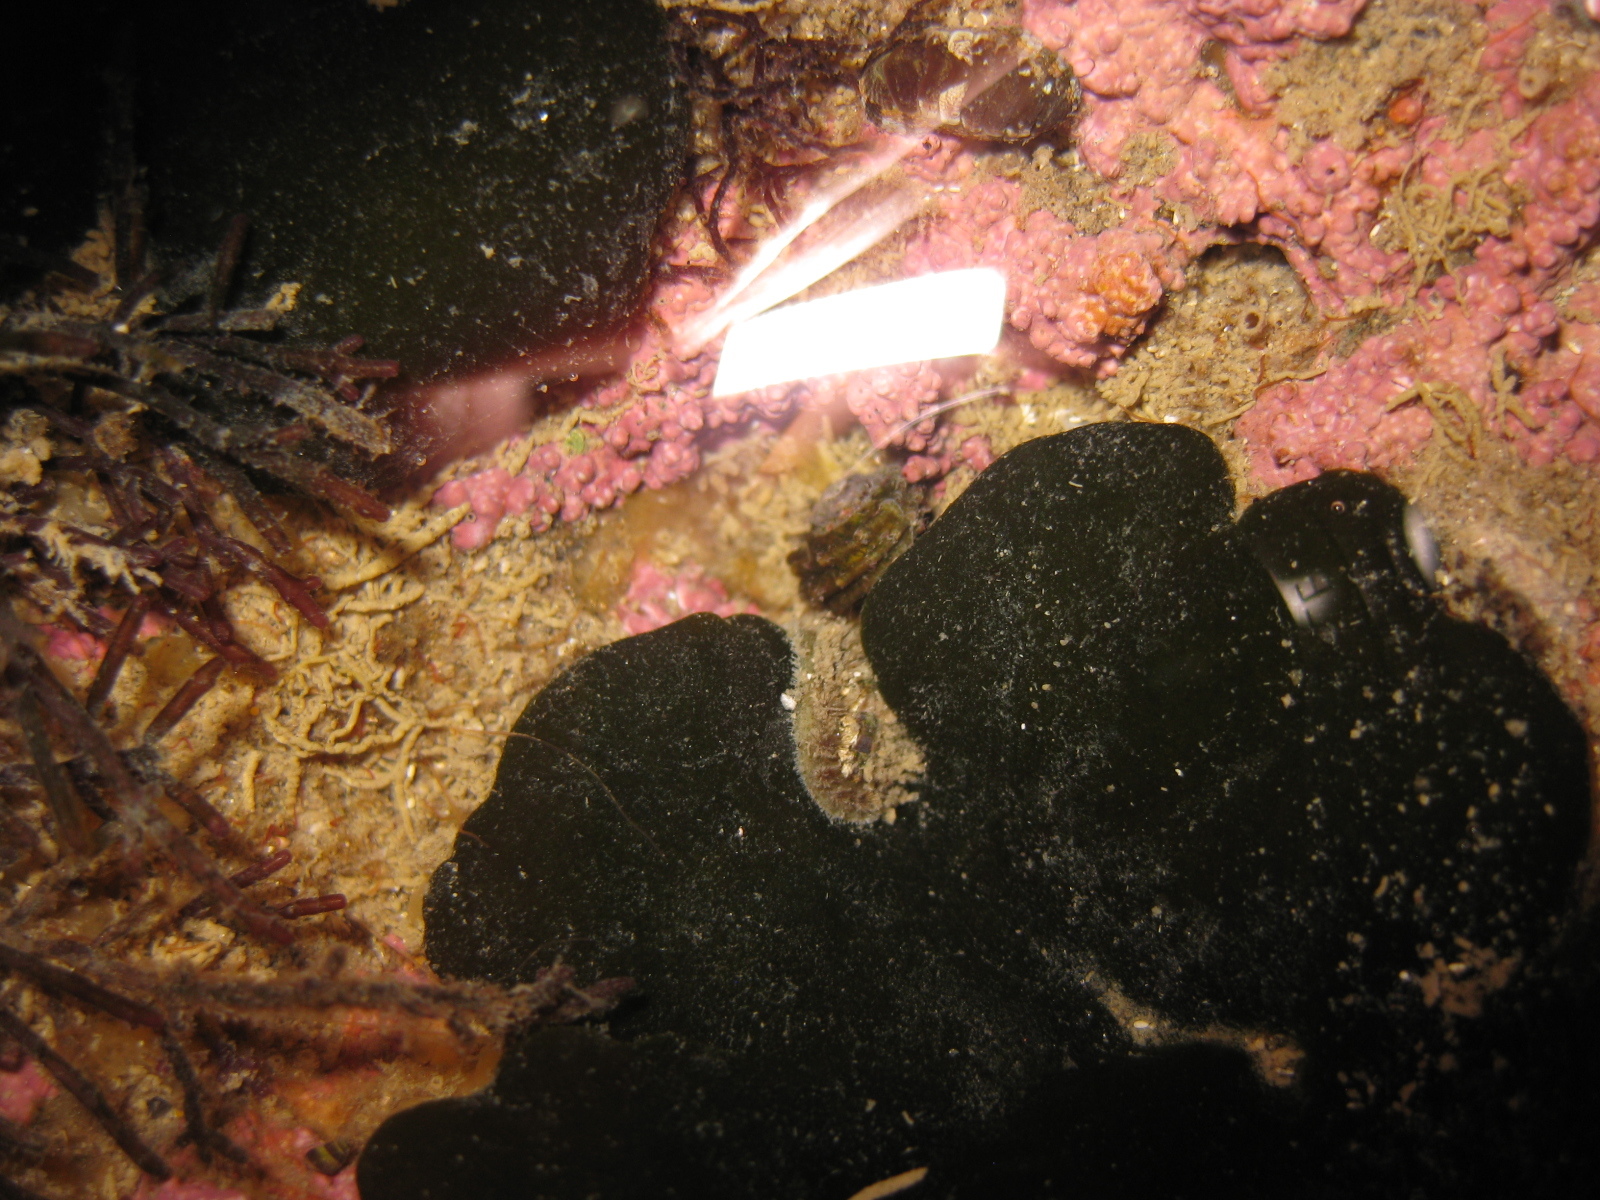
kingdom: Animalia
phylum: Mollusca
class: Gastropoda
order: Trochida
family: Turbinidae
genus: Lunella
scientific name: Lunella smaragda
